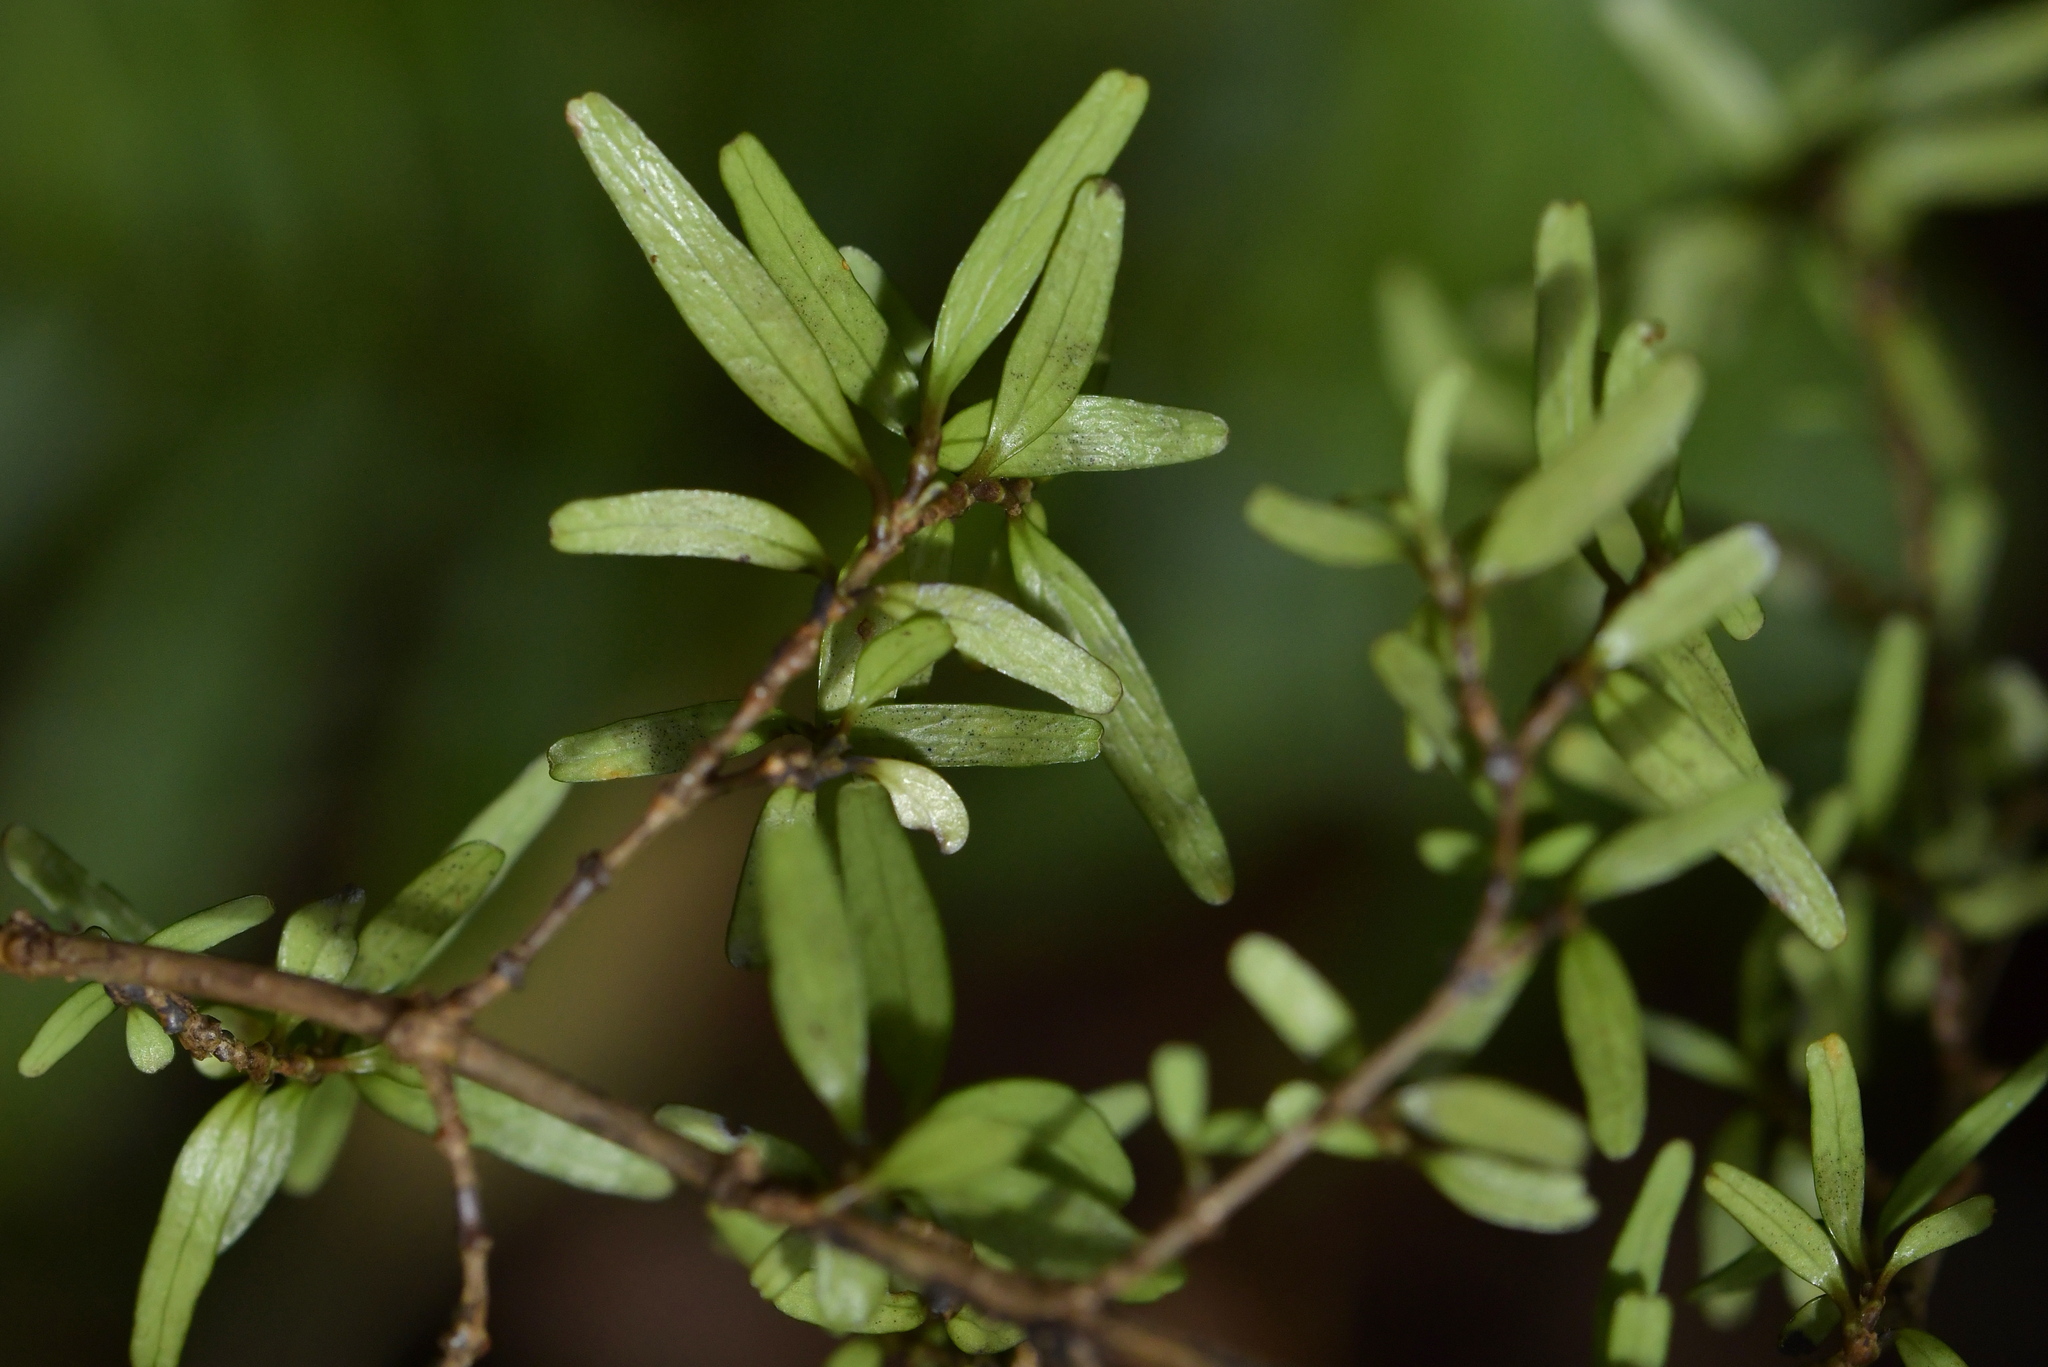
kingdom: Plantae
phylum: Tracheophyta
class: Magnoliopsida
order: Gentianales
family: Rubiaceae
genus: Coprosma
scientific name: Coprosma linariifolia
